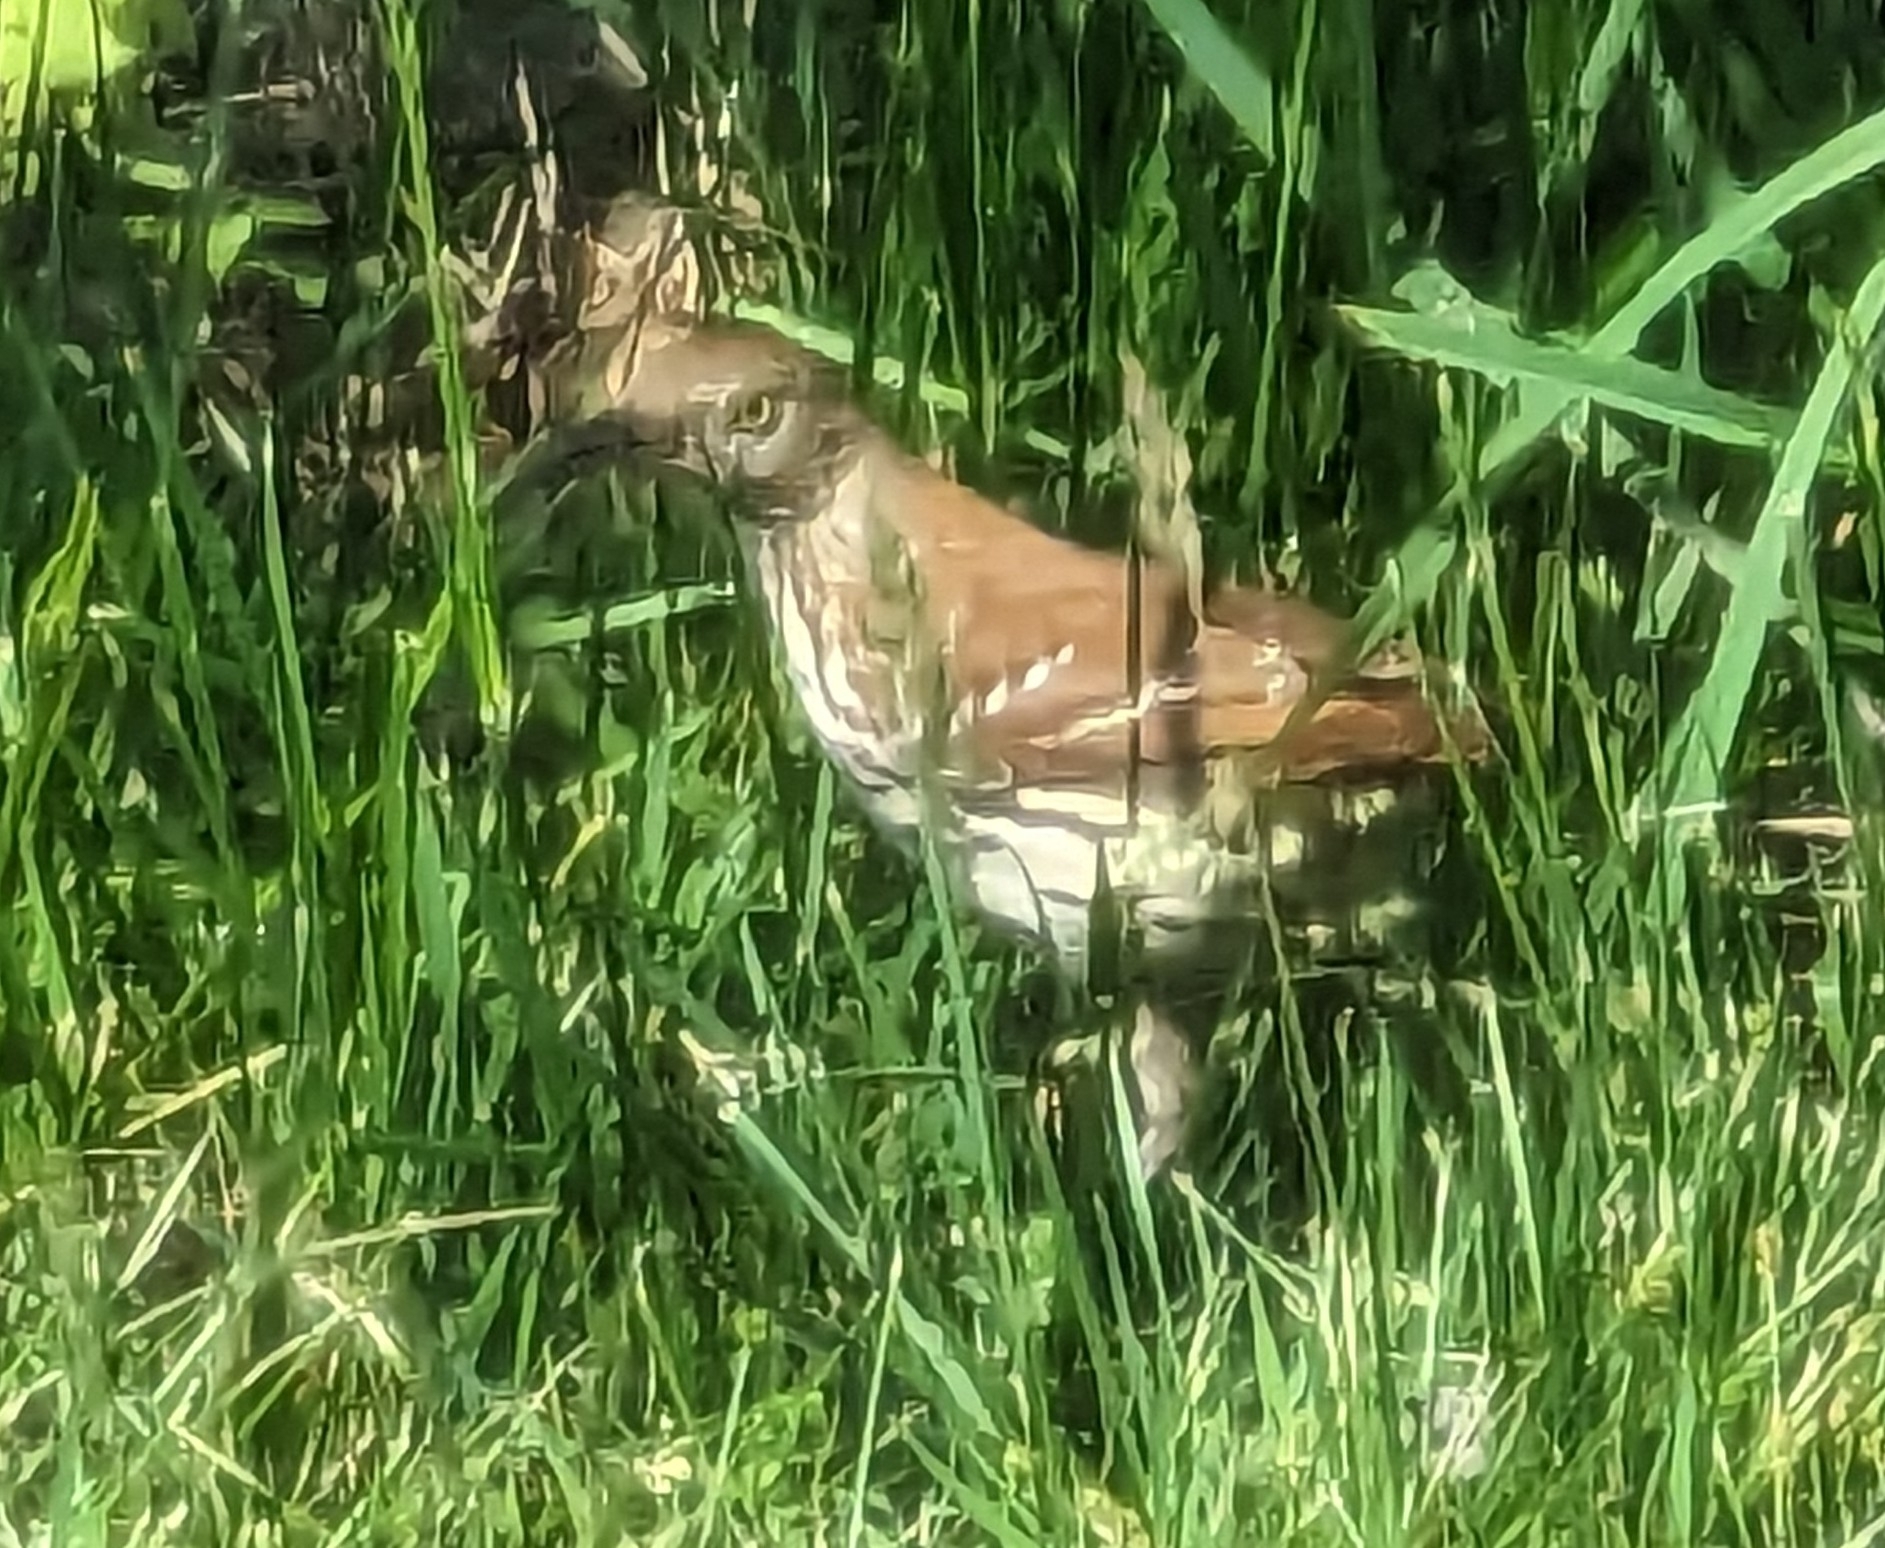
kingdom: Animalia
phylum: Chordata
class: Aves
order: Passeriformes
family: Mimidae
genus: Toxostoma
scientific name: Toxostoma rufum
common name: Brown thrasher
